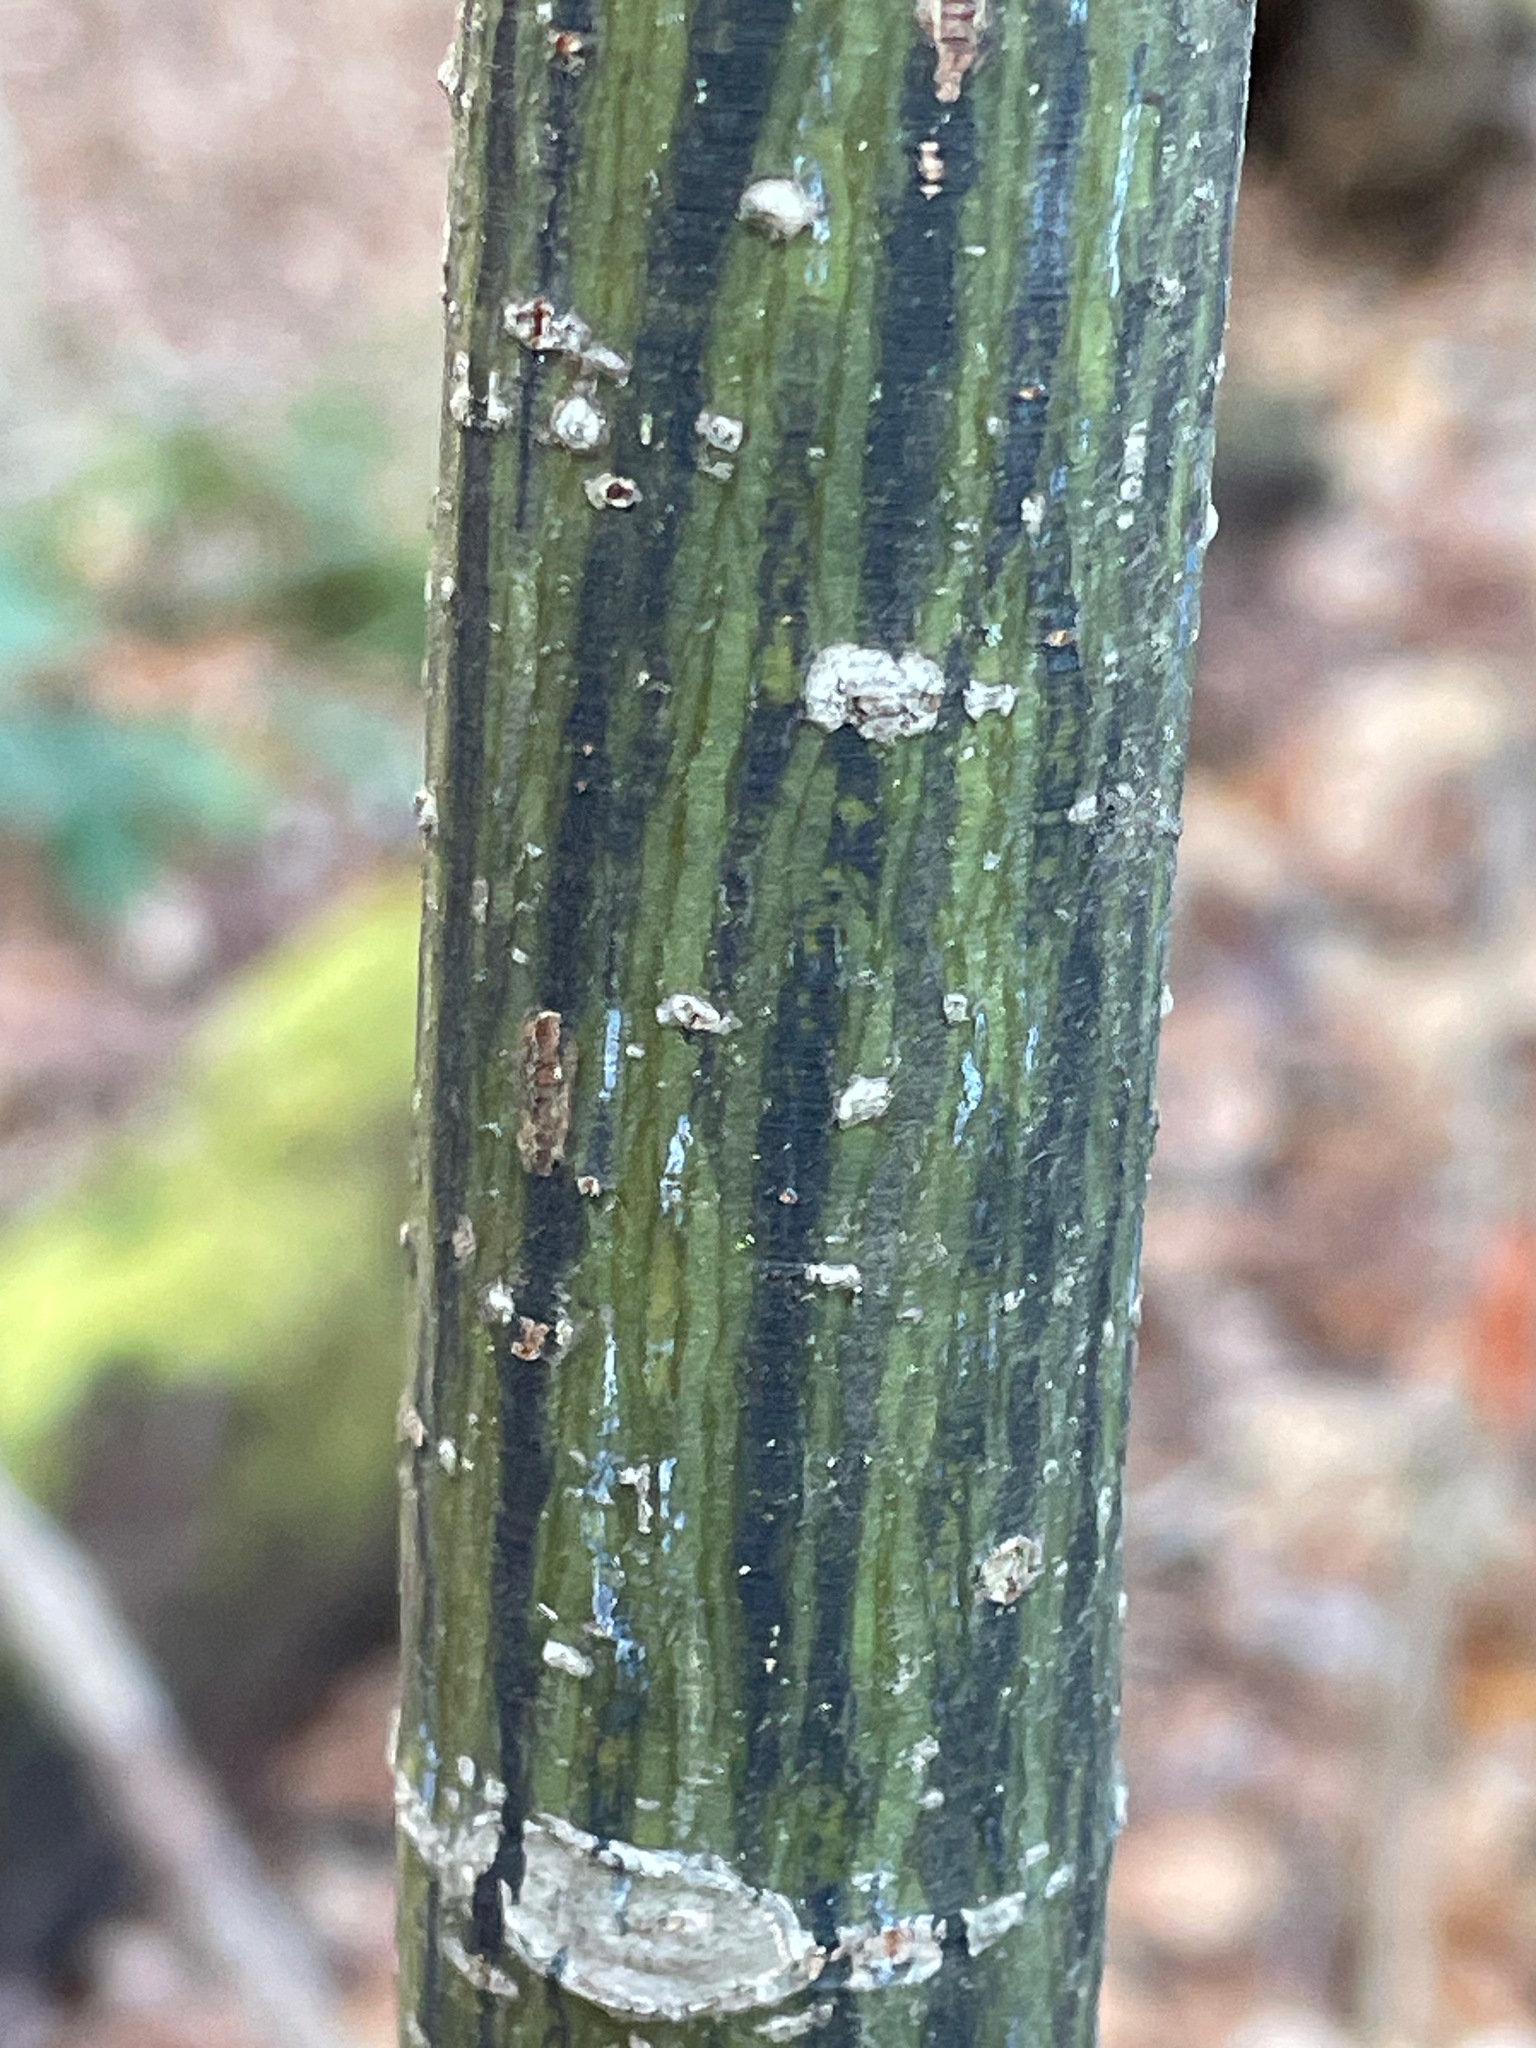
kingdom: Plantae
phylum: Tracheophyta
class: Magnoliopsida
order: Sapindales
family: Sapindaceae
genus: Acer
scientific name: Acer pensylvanicum
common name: Moosewood
